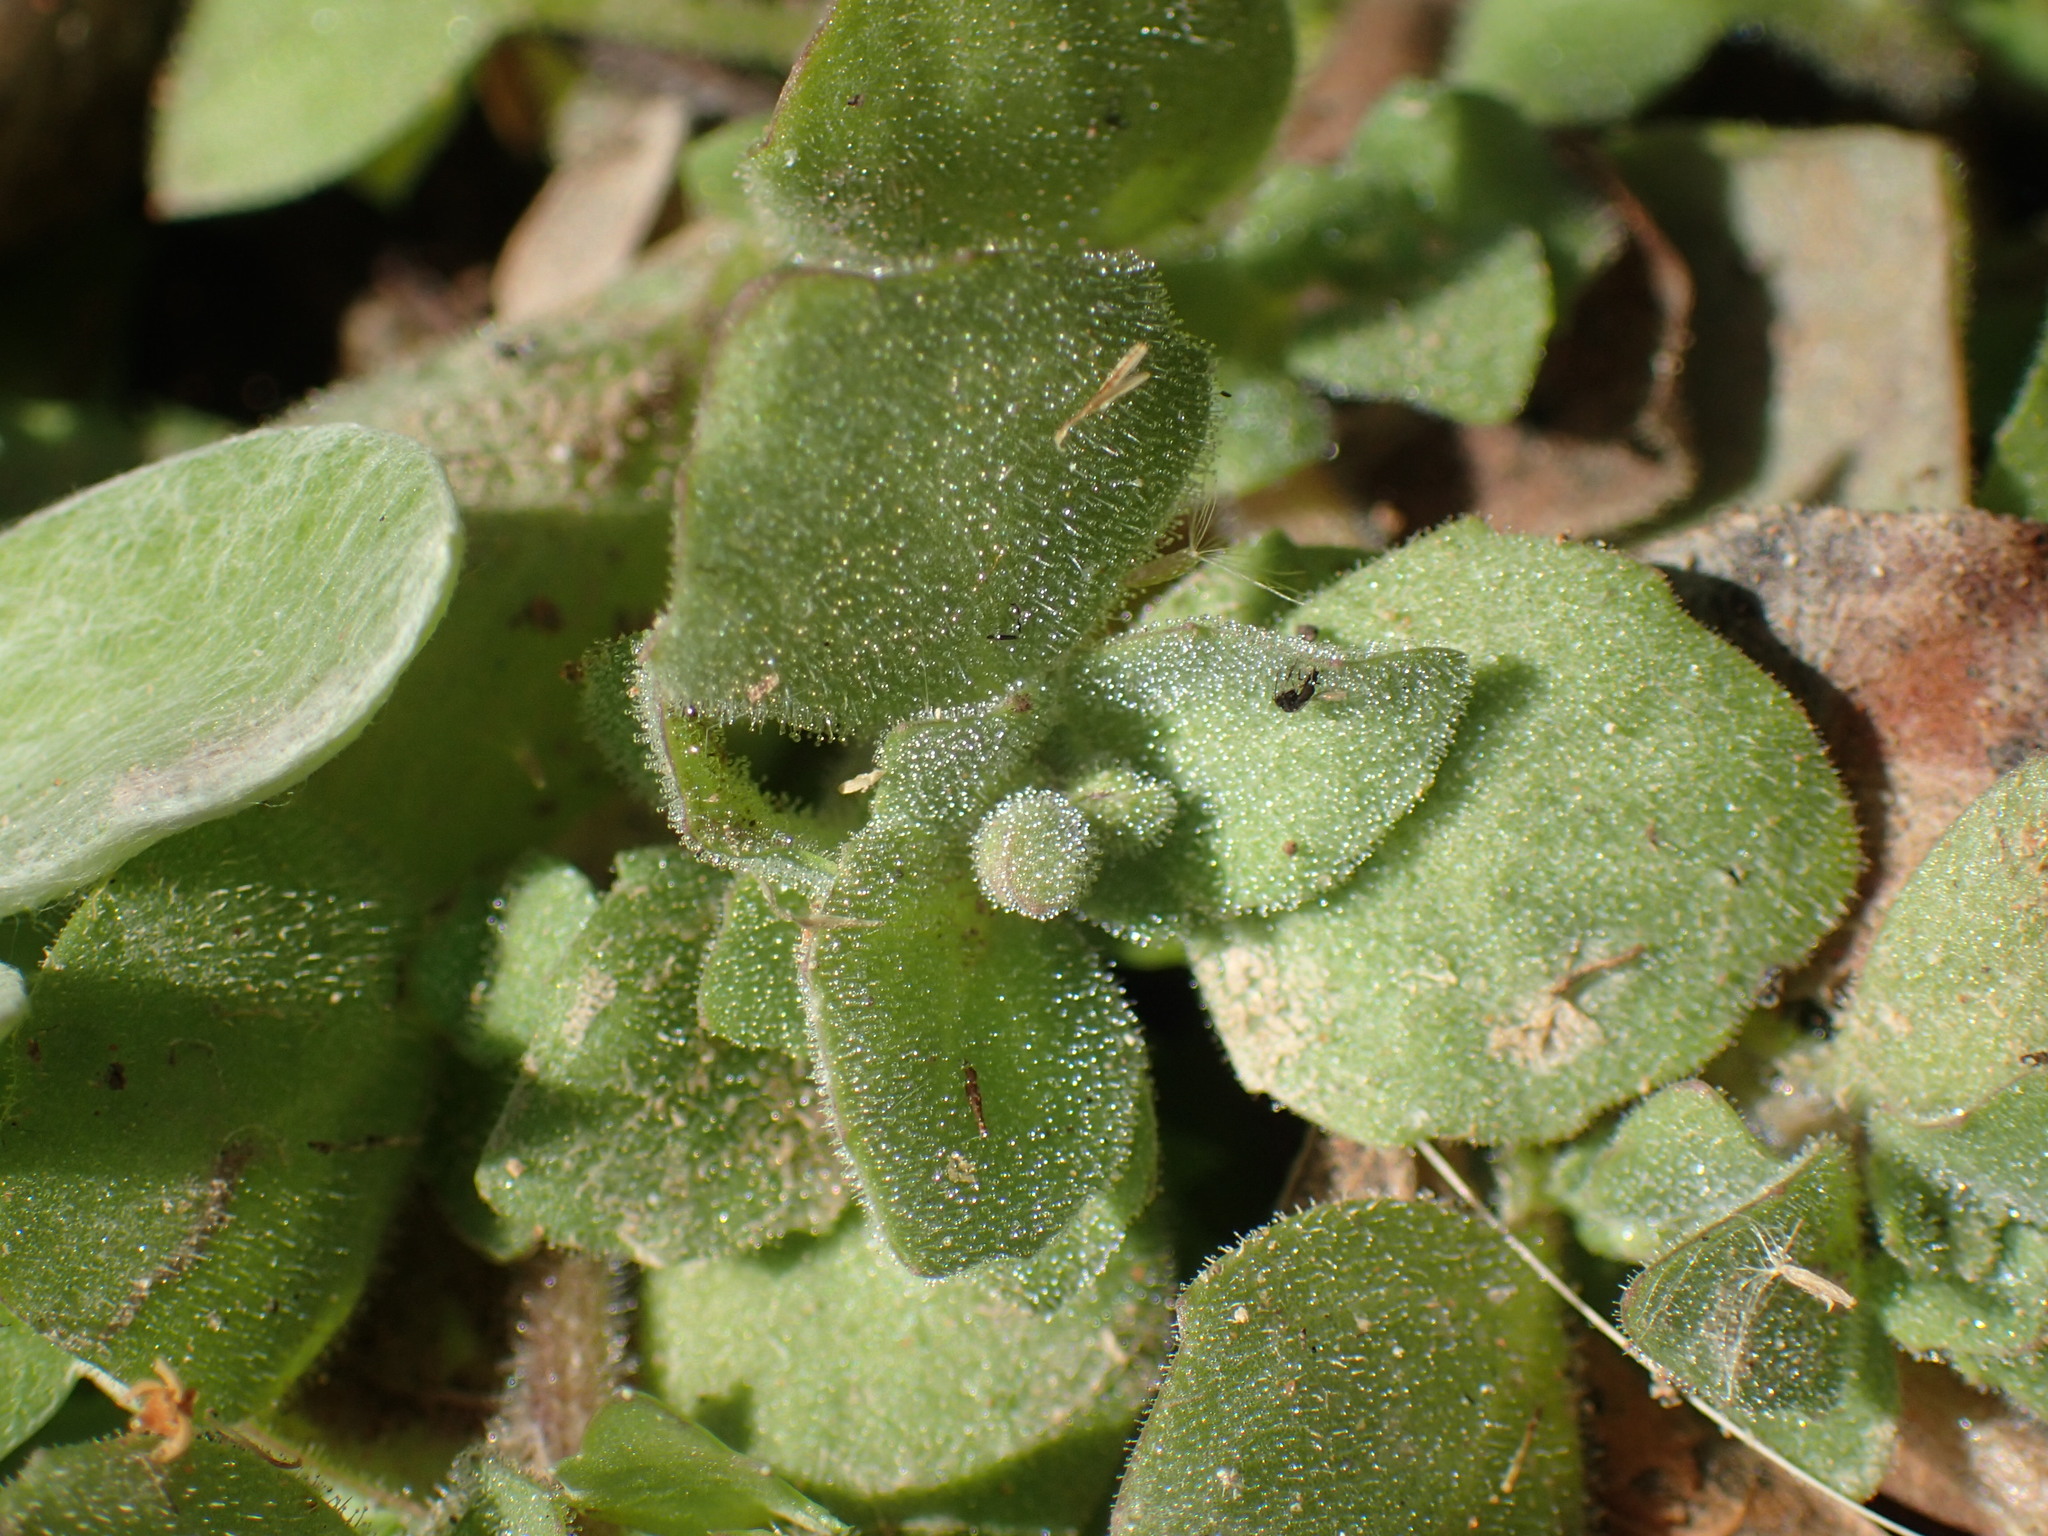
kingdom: Plantae
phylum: Tracheophyta
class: Magnoliopsida
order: Lamiales
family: Scrophulariaceae
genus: Diclis
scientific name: Diclis petiolaris
